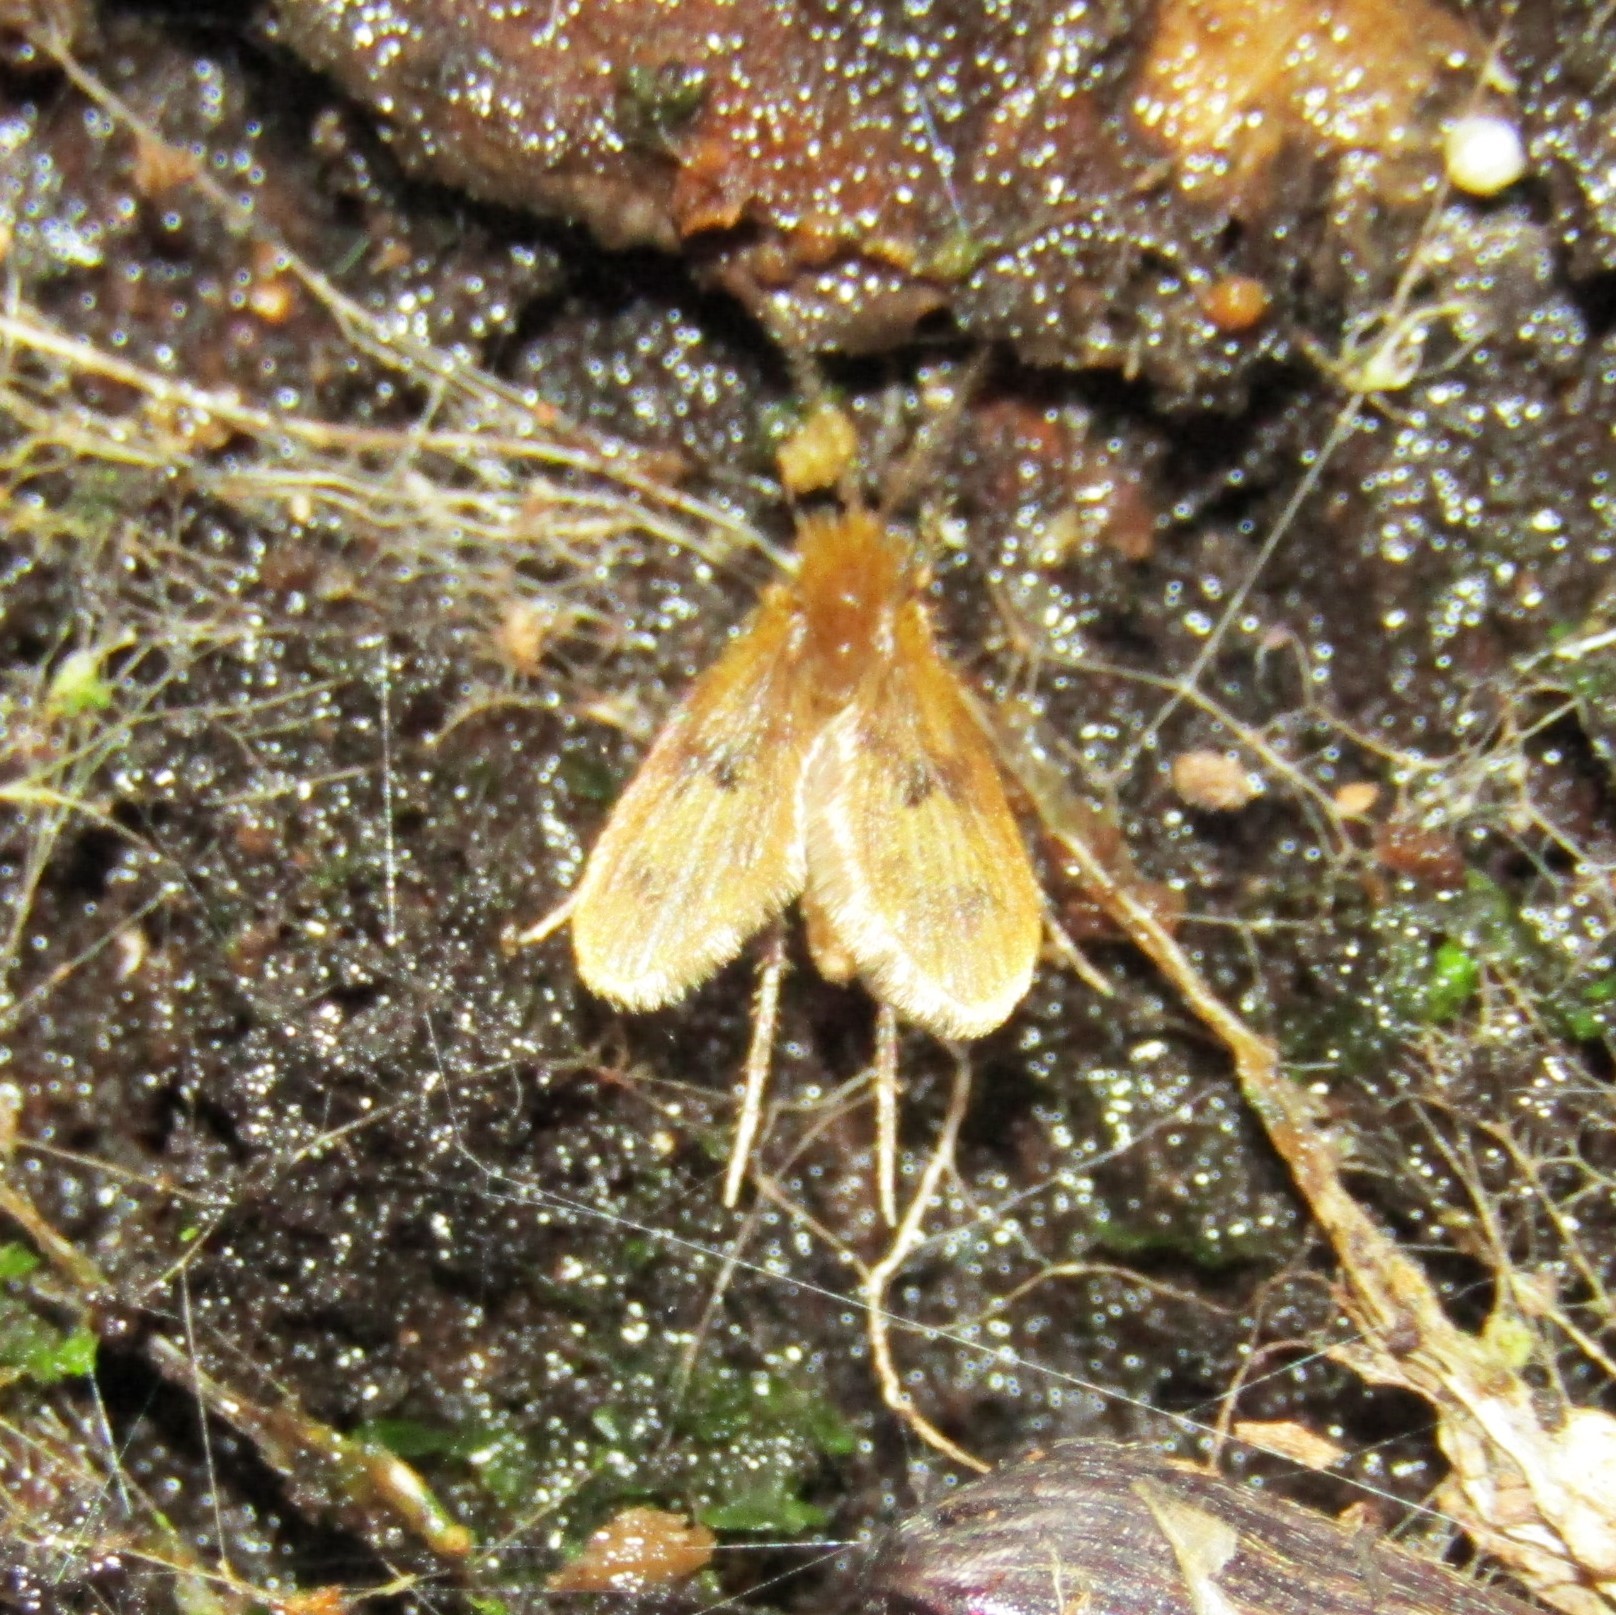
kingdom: Animalia
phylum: Arthropoda
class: Insecta
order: Diptera
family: Psychodidae
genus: Notofairchildia
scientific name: Notofairchildia zelandiae
